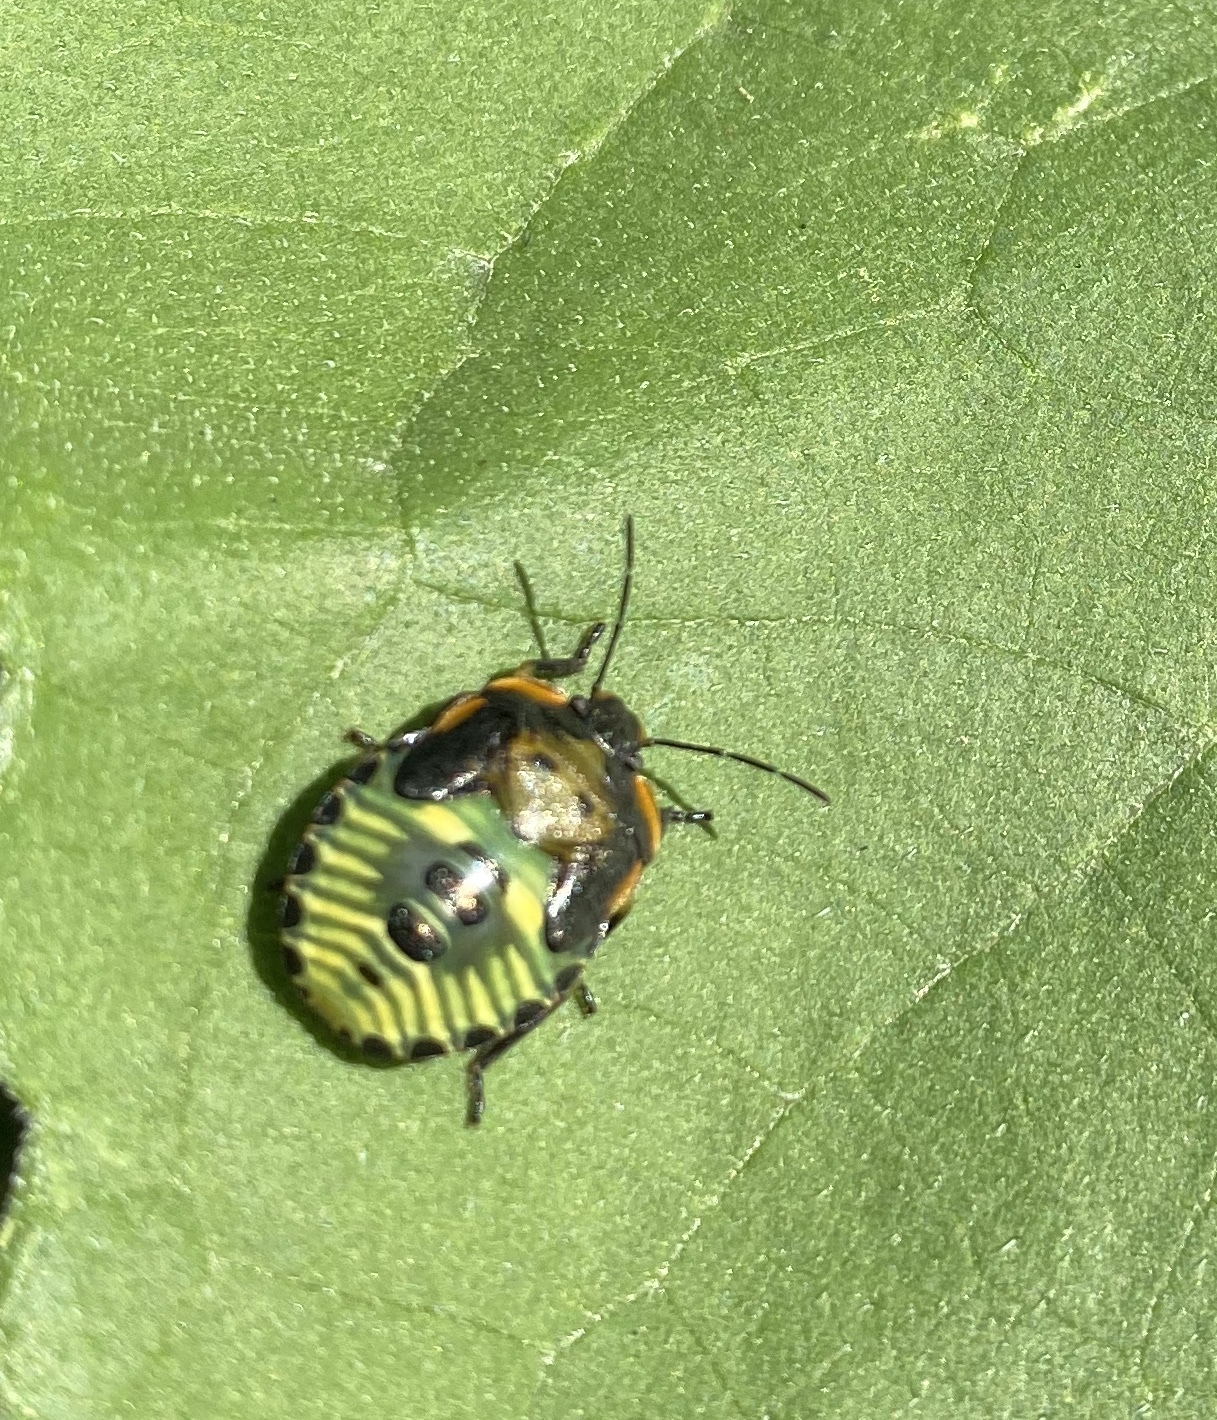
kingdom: Animalia
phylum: Arthropoda
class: Insecta
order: Hemiptera
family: Pentatomidae
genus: Chinavia
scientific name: Chinavia hilaris
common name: Green stink bug
